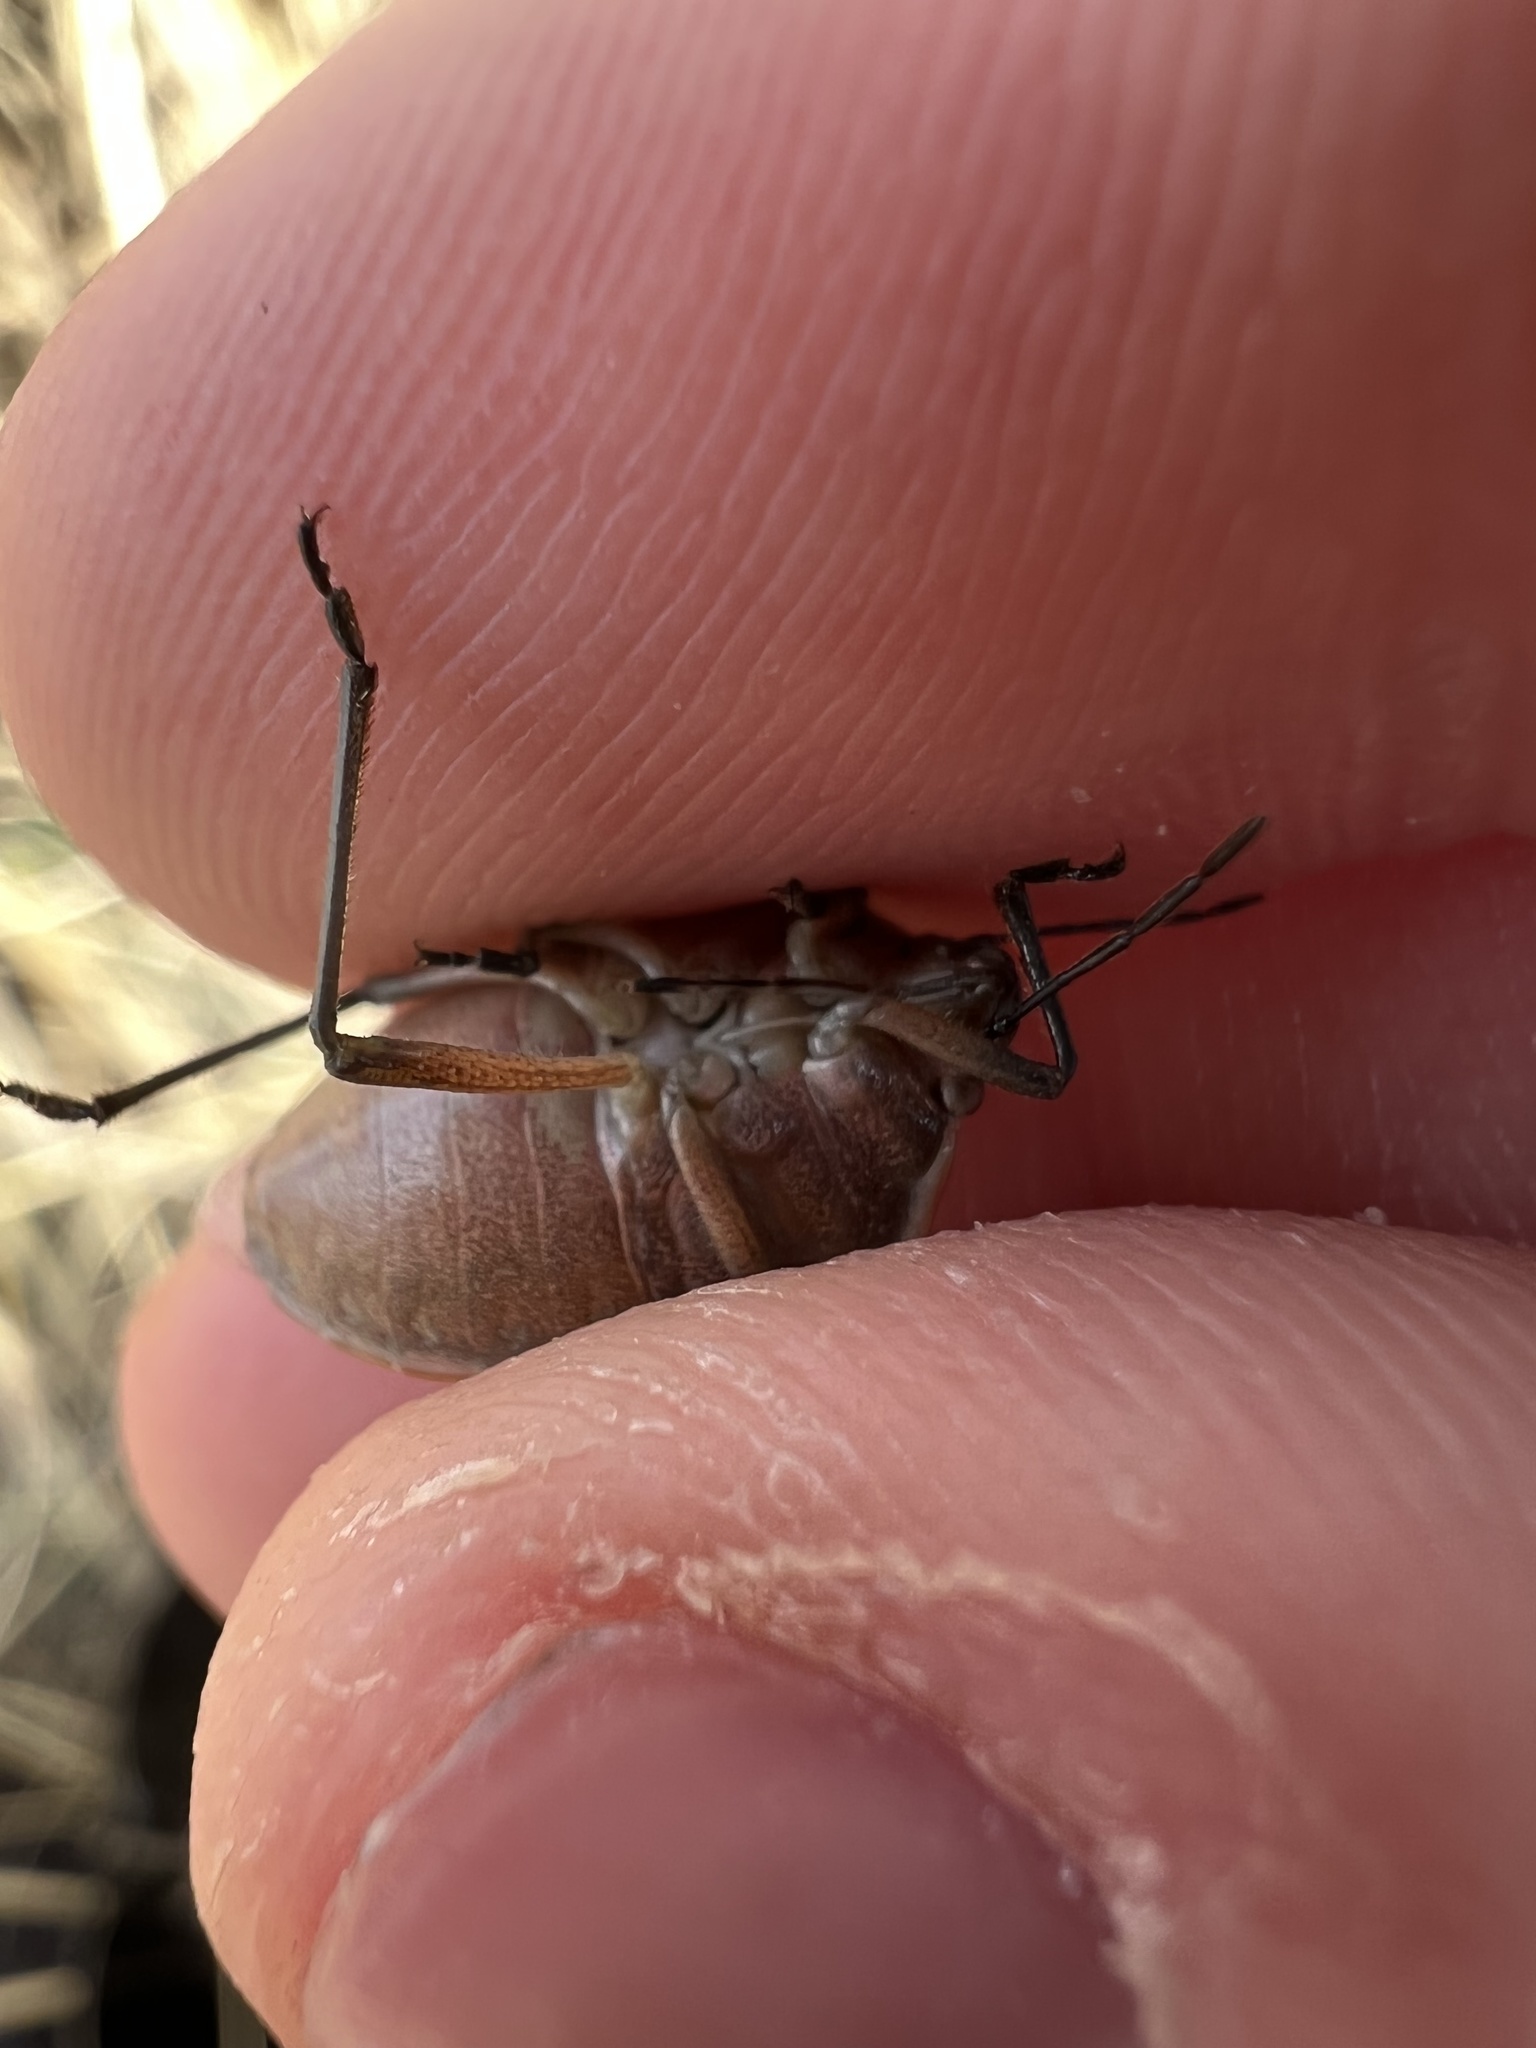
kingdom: Animalia
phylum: Arthropoda
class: Insecta
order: Hemiptera
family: Pentatomidae
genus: Chlorochroa
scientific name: Chlorochroa sayi
